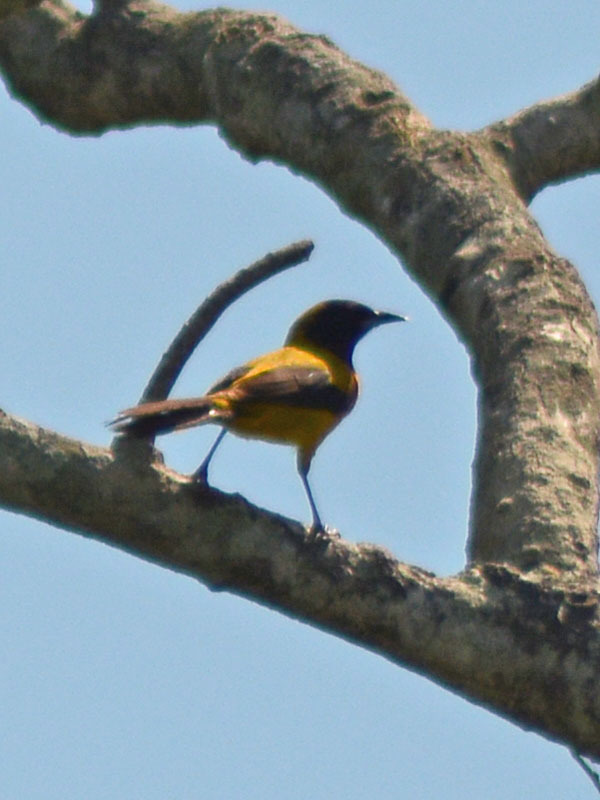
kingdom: Animalia
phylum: Chordata
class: Aves
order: Passeriformes
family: Icteridae
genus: Icterus
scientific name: Icterus prosthemelas
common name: Black-cowled oriole
